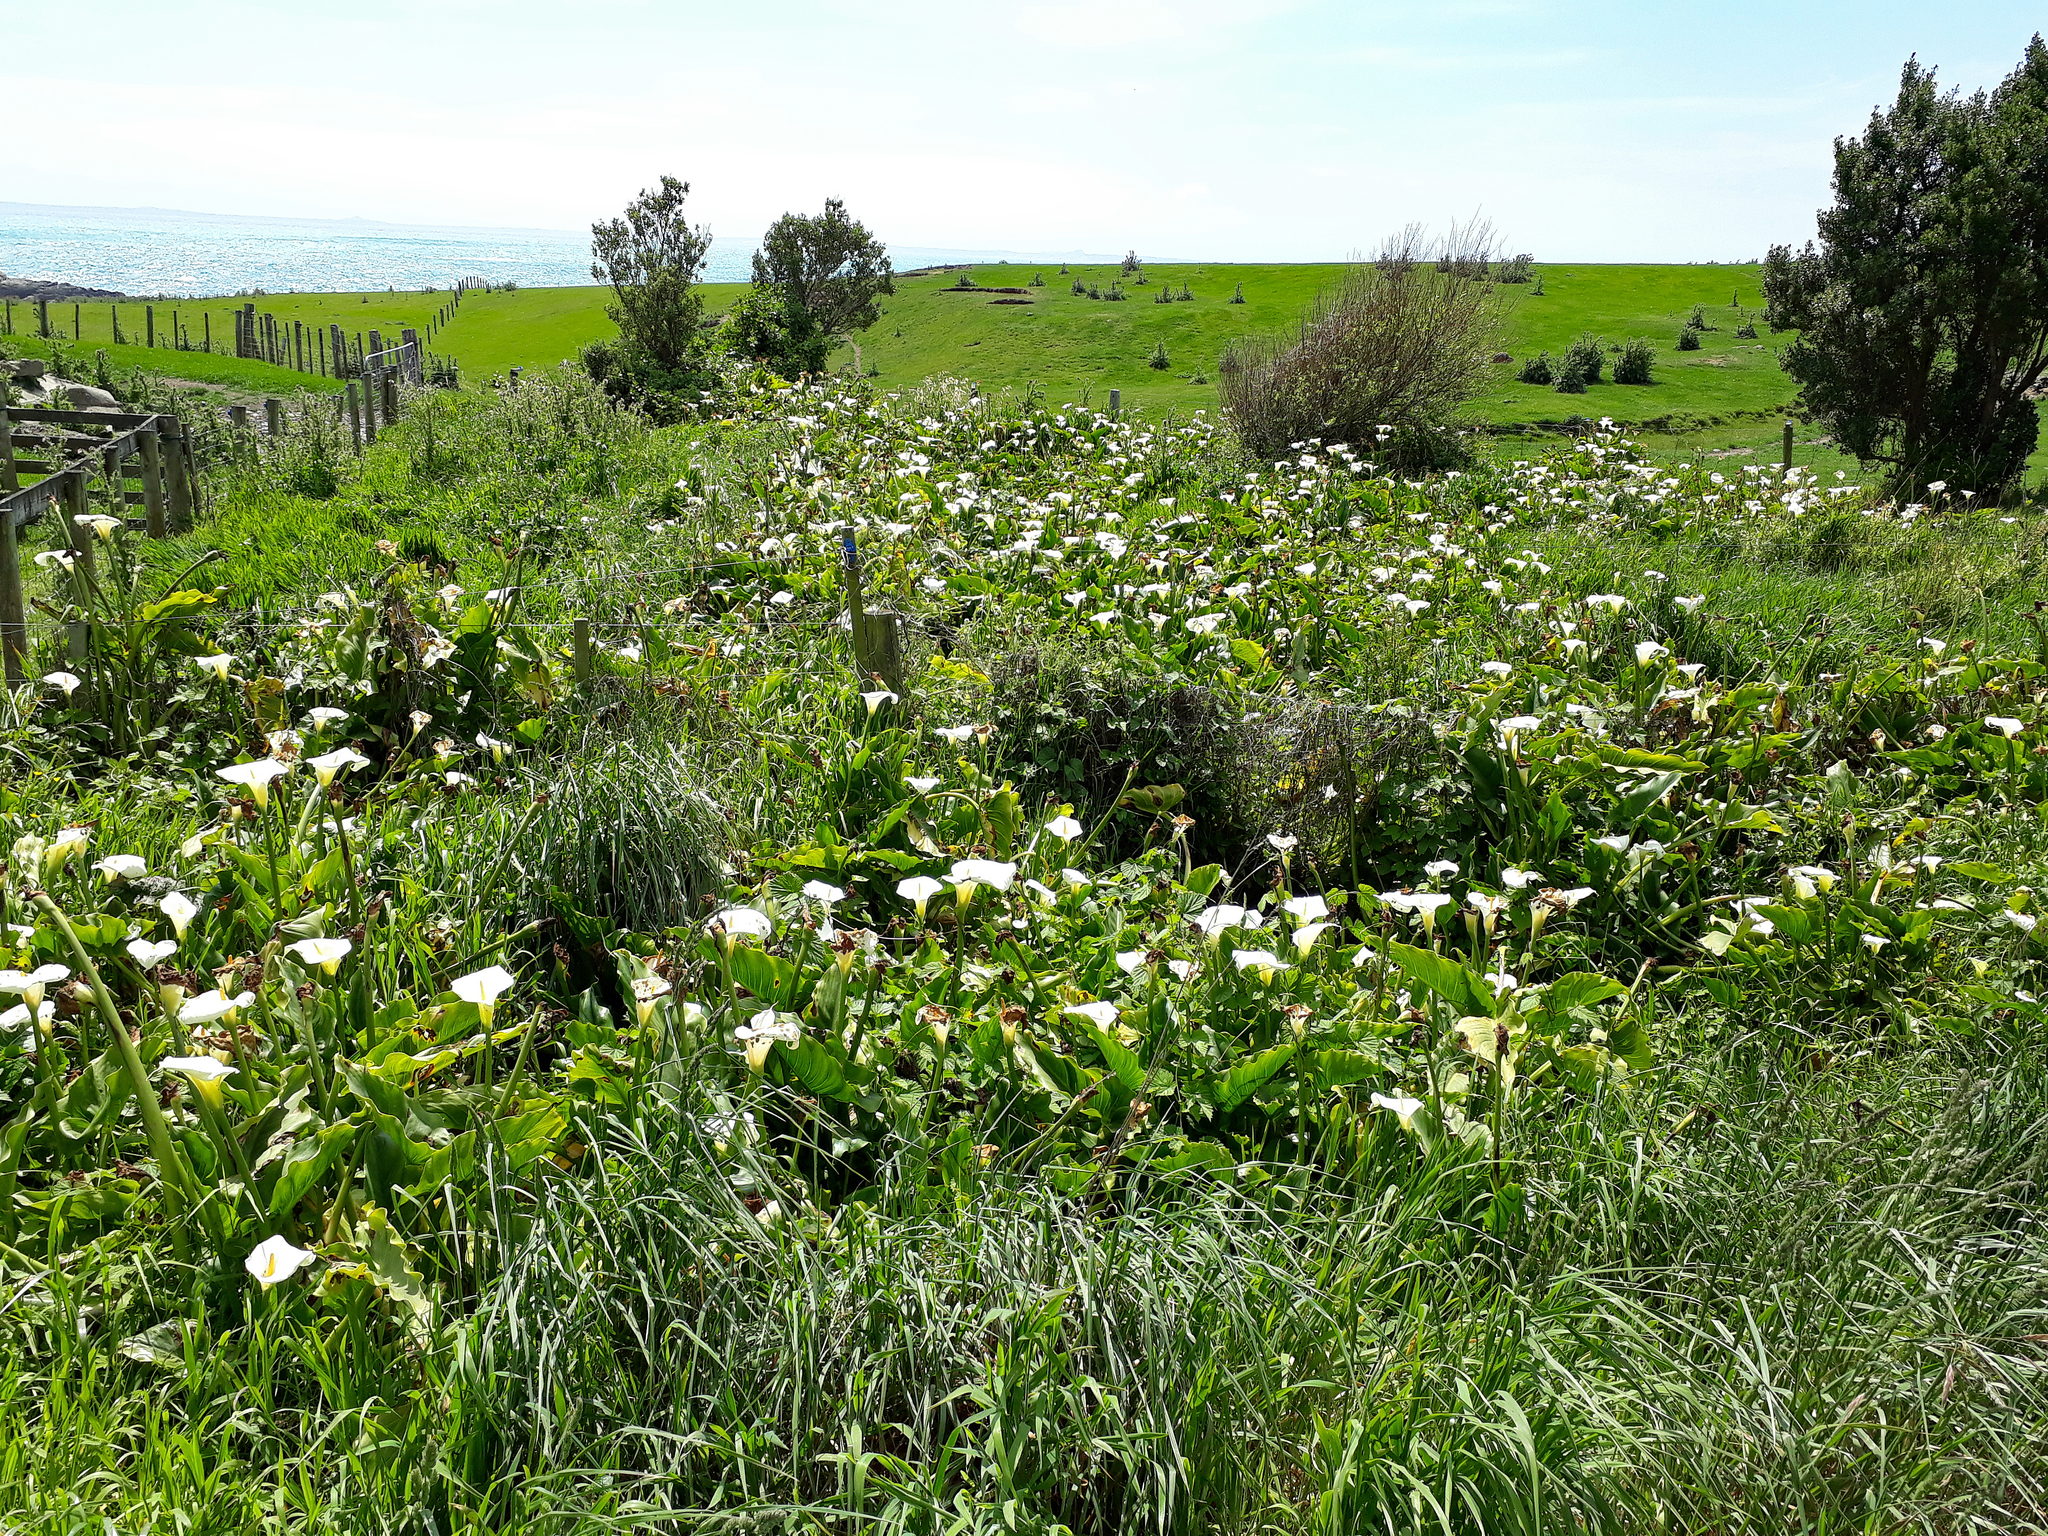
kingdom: Plantae
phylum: Tracheophyta
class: Liliopsida
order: Alismatales
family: Araceae
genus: Zantedeschia
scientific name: Zantedeschia aethiopica
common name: Altar-lily
